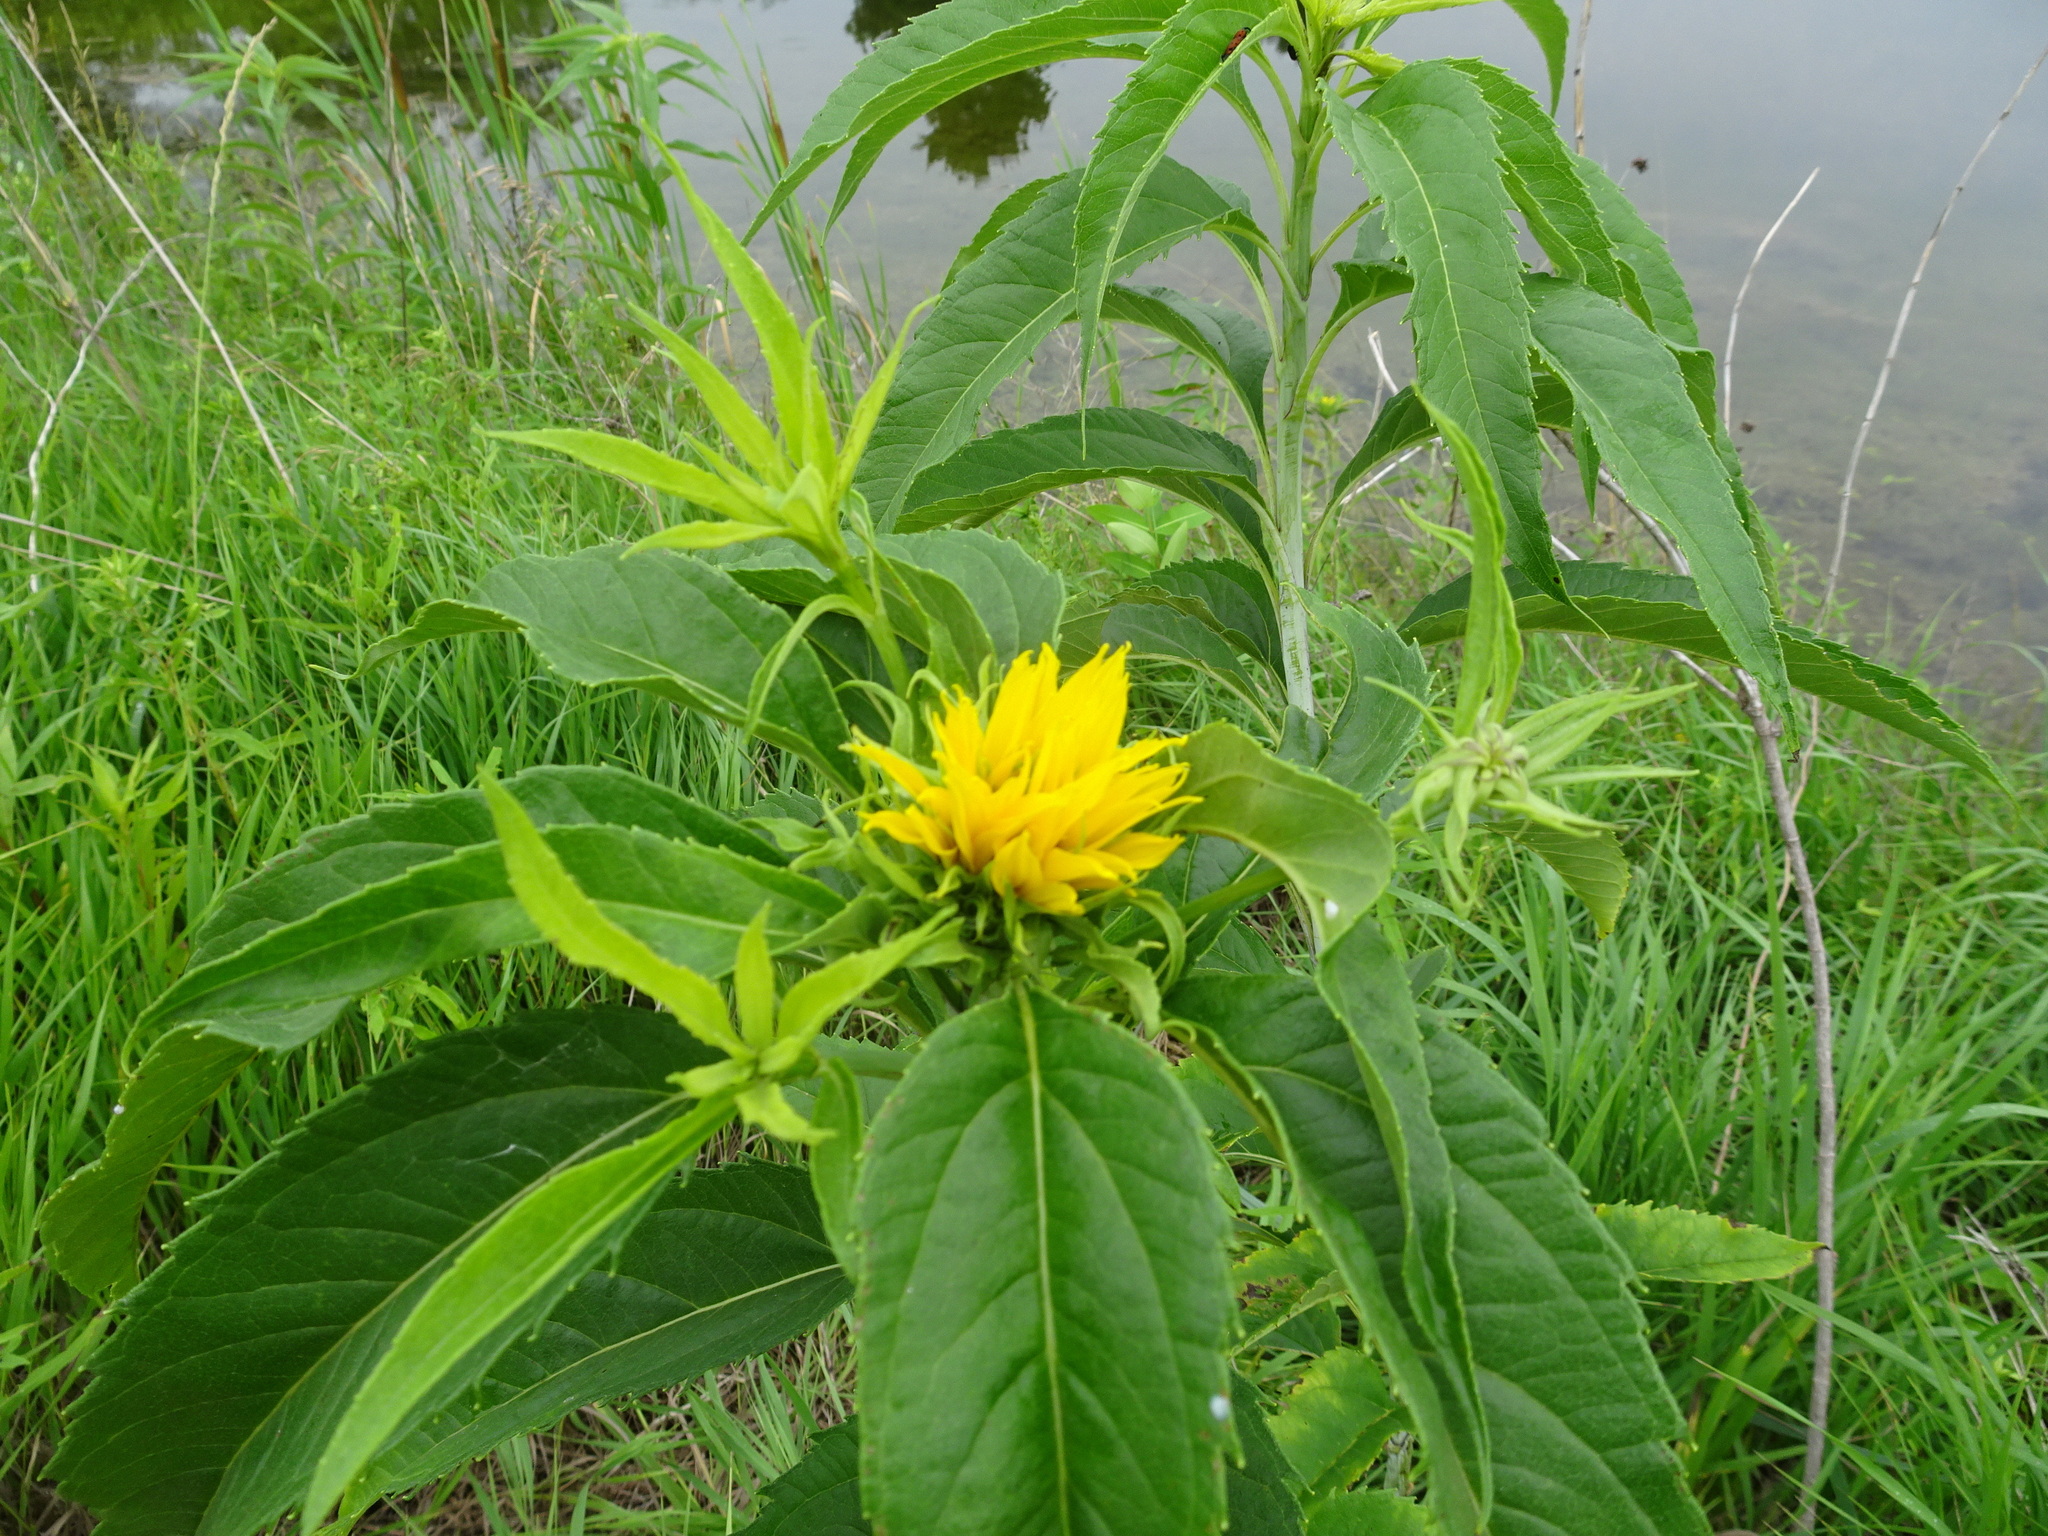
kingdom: Plantae
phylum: Tracheophyta
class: Magnoliopsida
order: Asterales
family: Asteraceae
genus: Helianthus
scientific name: Helianthus grosseserratus
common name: Sawtooth sunflower
